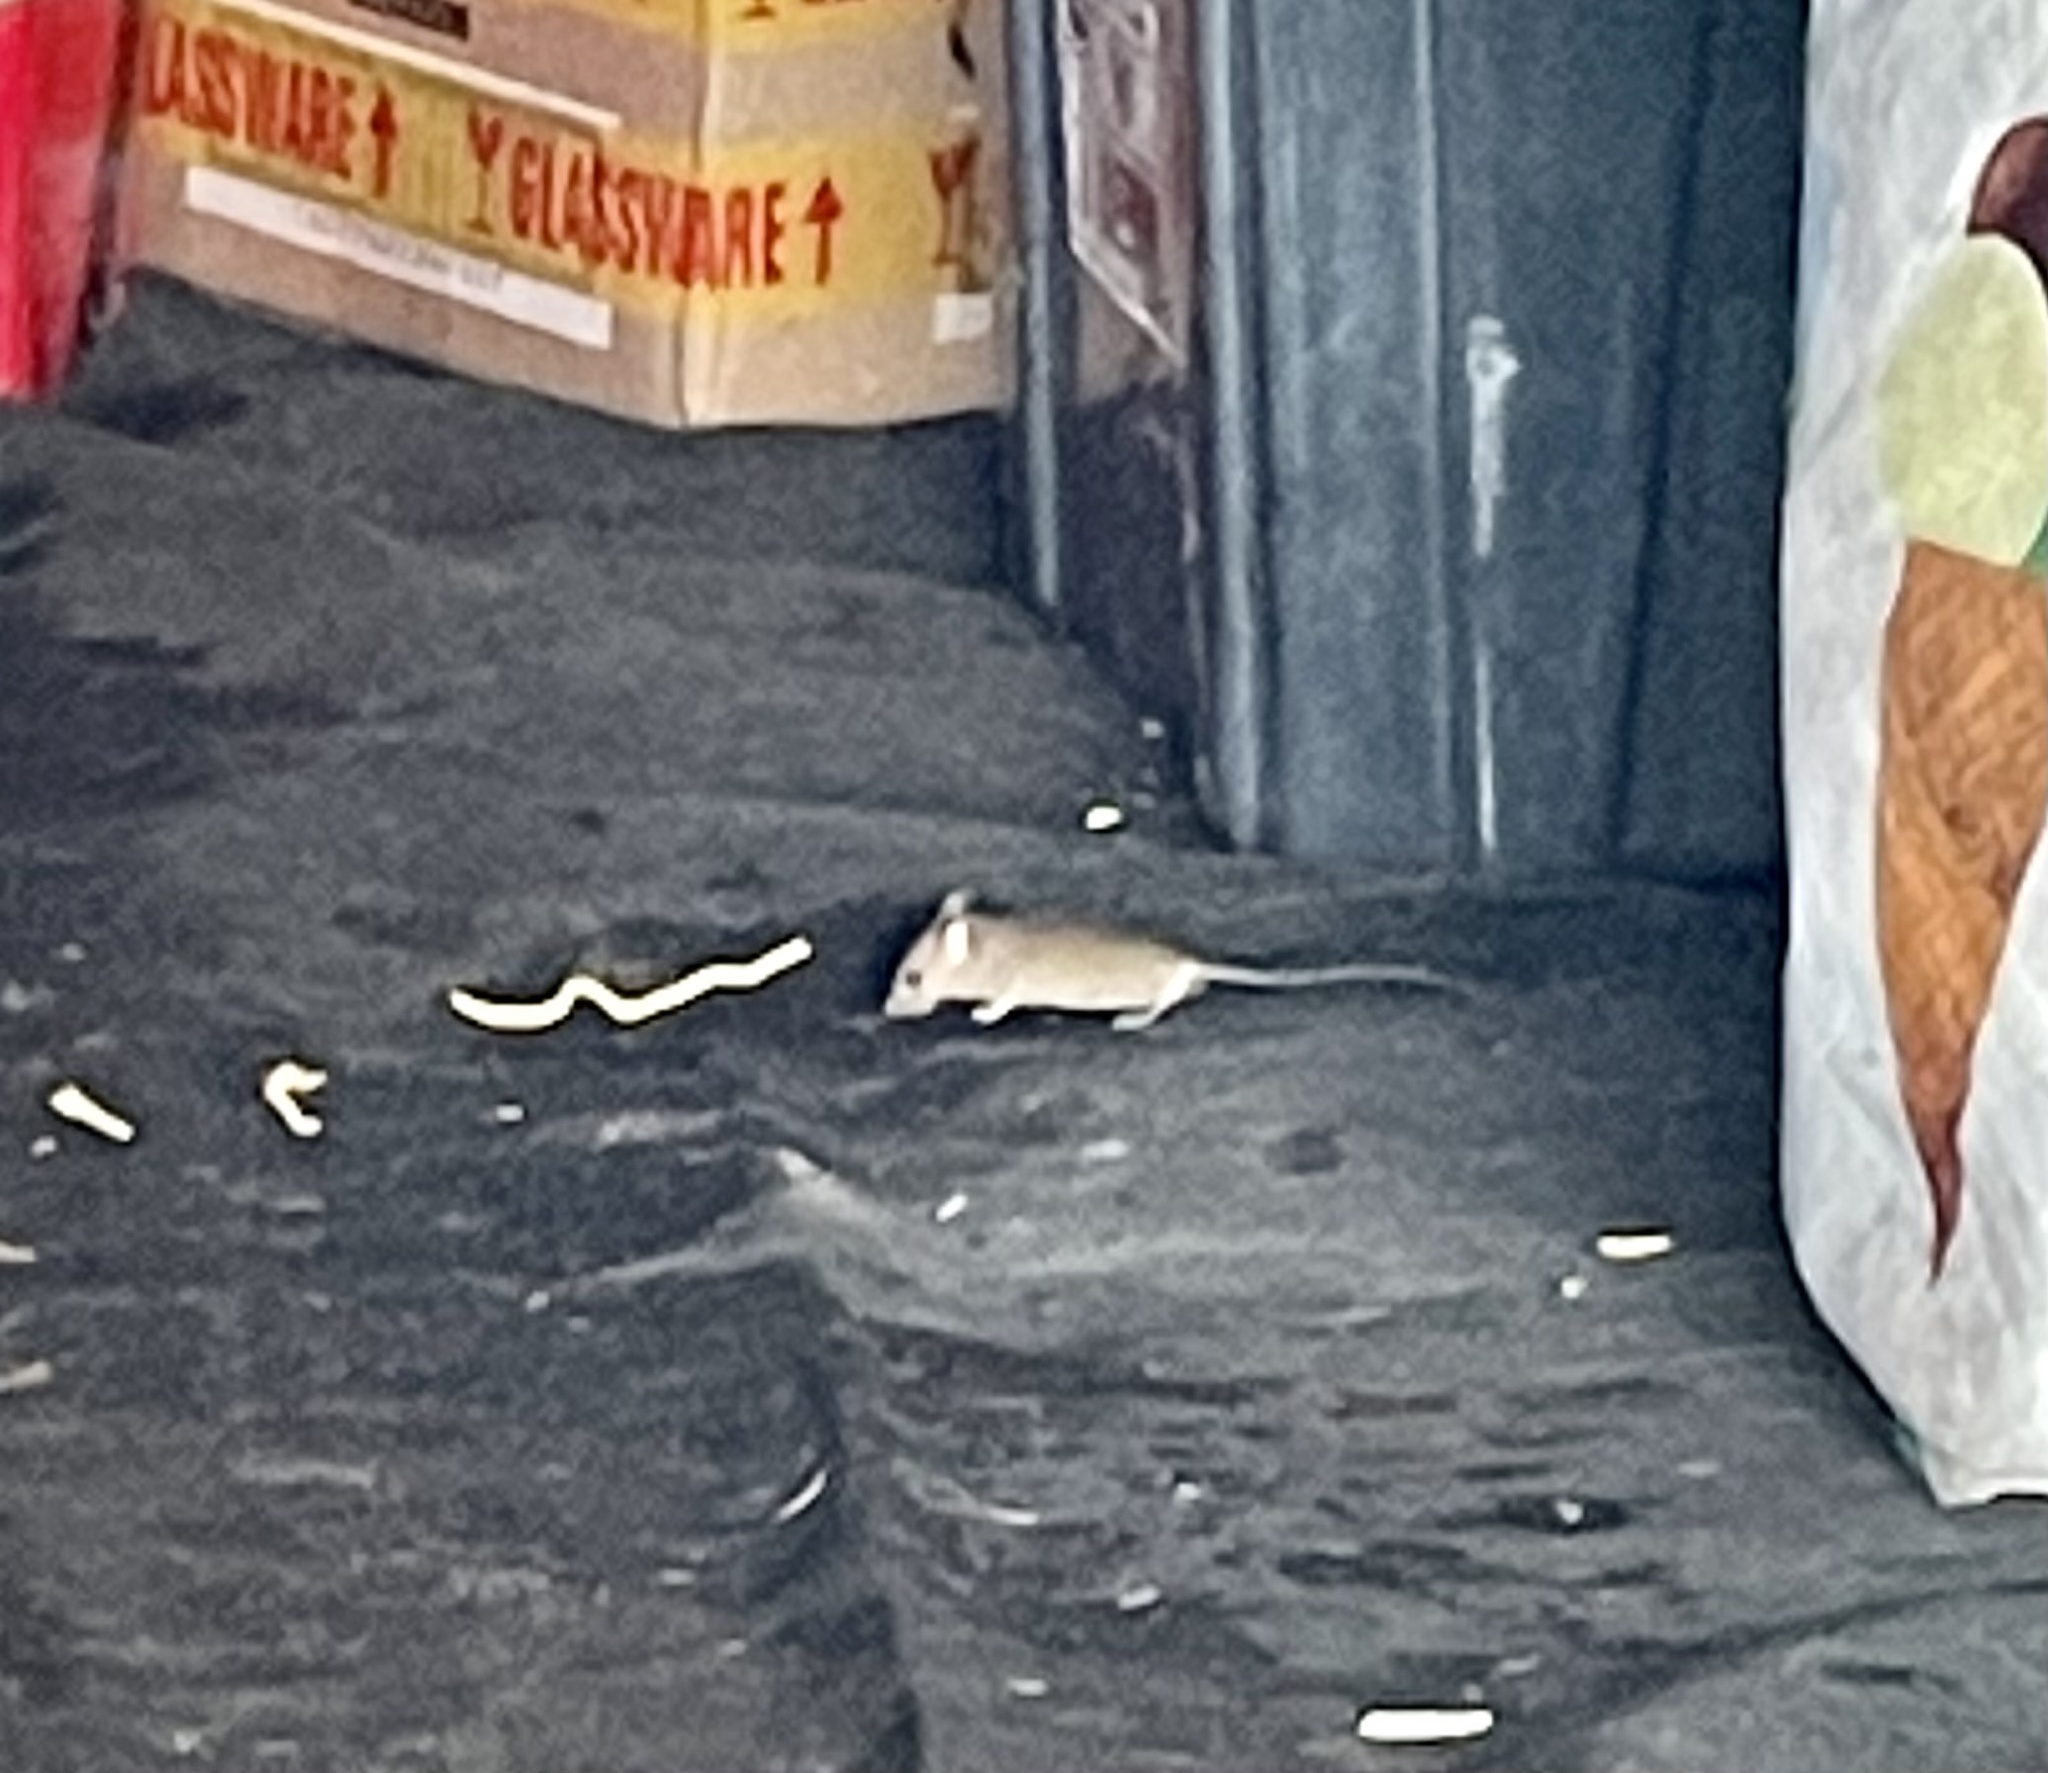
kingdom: Animalia
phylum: Chordata
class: Mammalia
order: Rodentia
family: Muridae
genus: Mus
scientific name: Mus musculus
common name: House mouse
